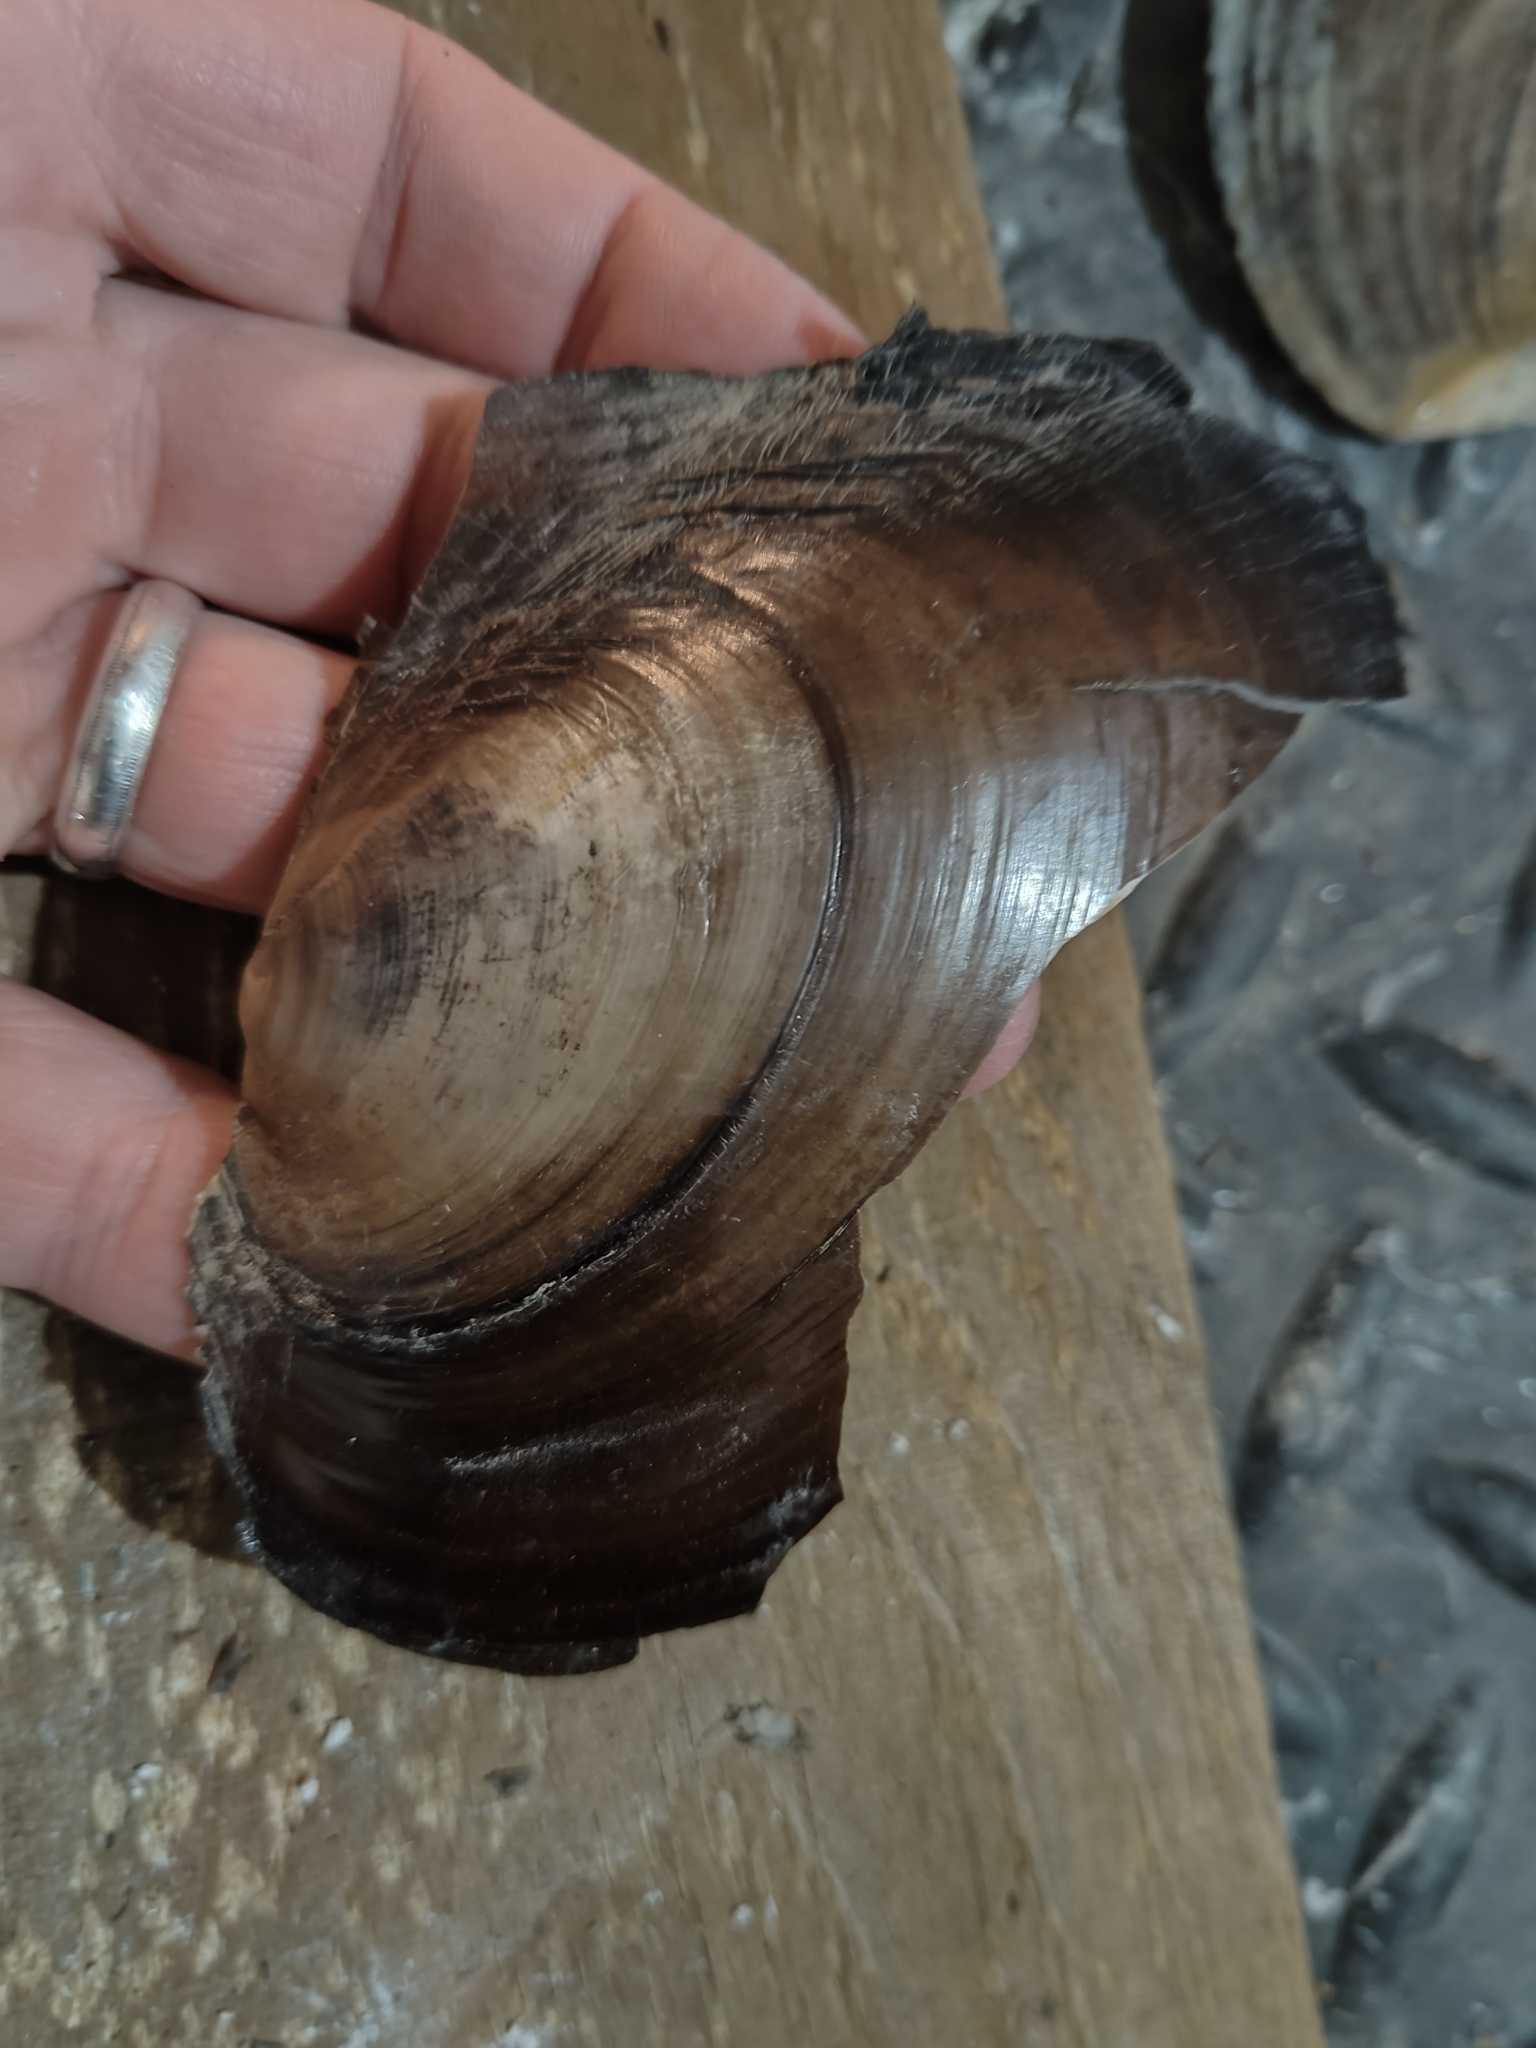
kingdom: Animalia
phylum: Mollusca
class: Bivalvia
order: Unionida
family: Unionidae
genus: Potamilus
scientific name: Potamilus ohiensis
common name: Pink papershell
